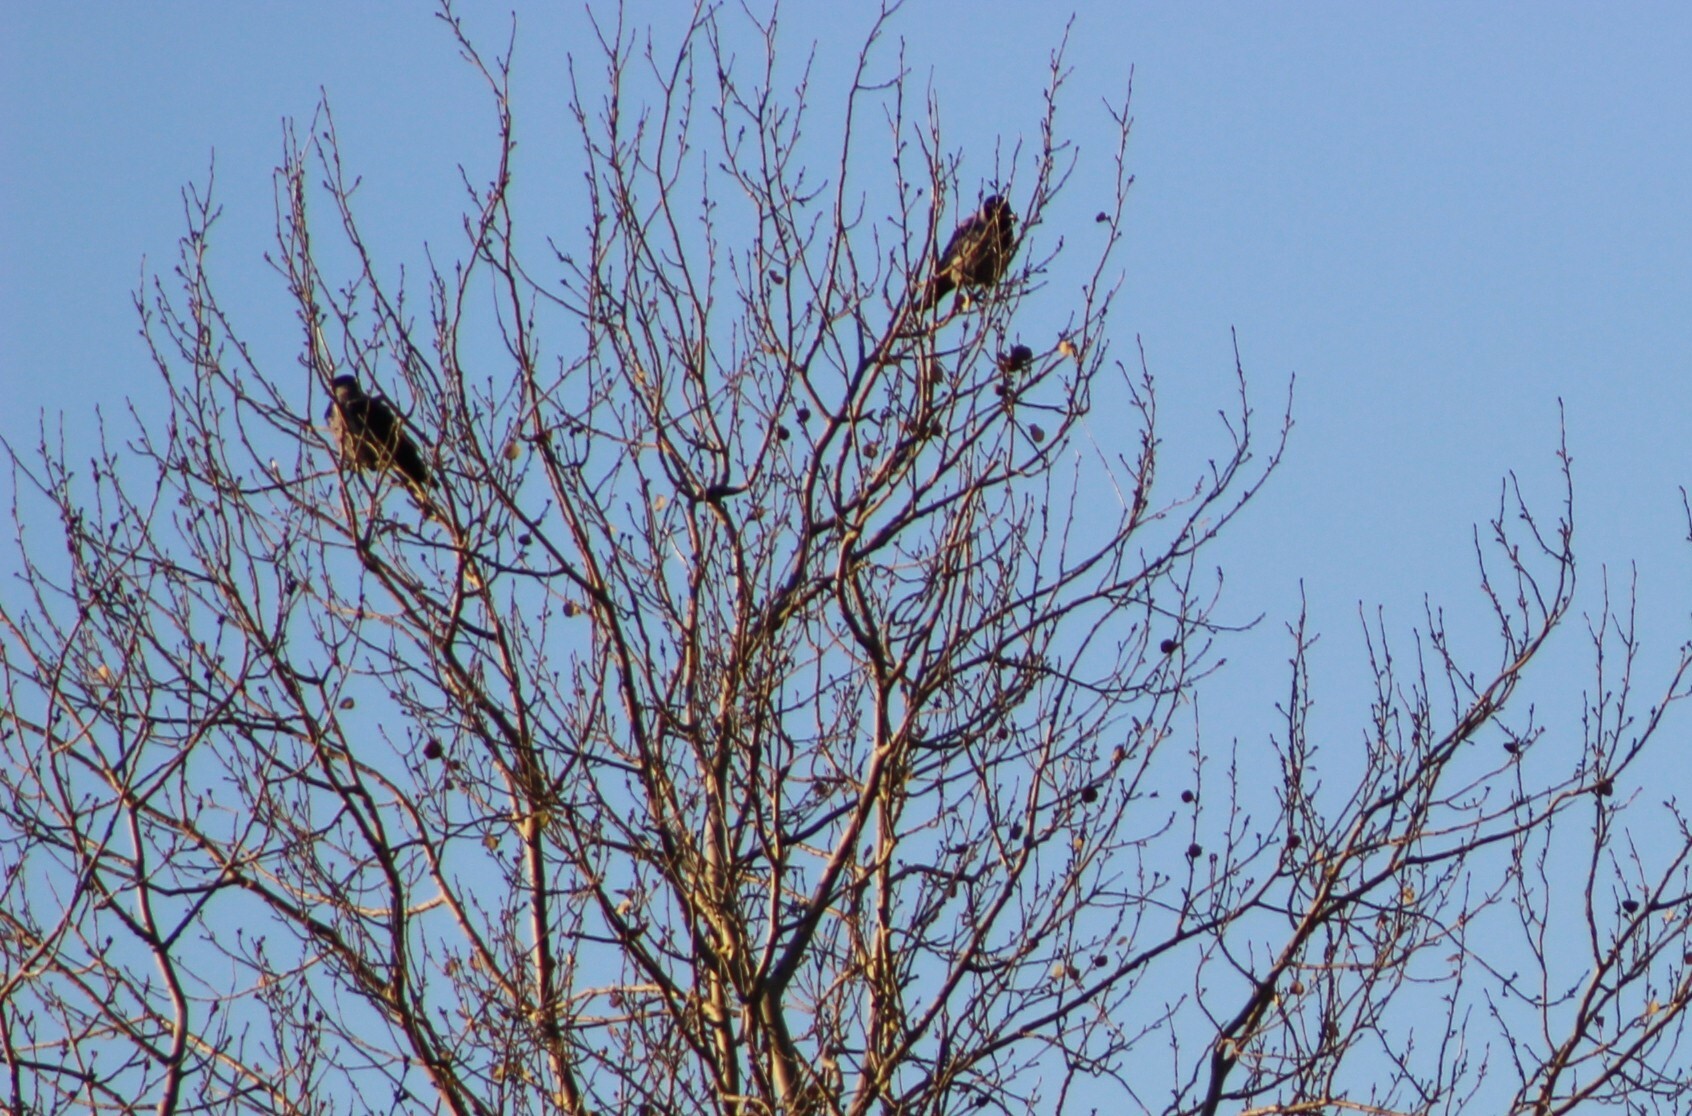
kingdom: Animalia
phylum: Chordata
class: Aves
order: Passeriformes
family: Corvidae
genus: Corvus
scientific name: Corvus cornix
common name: Hooded crow
